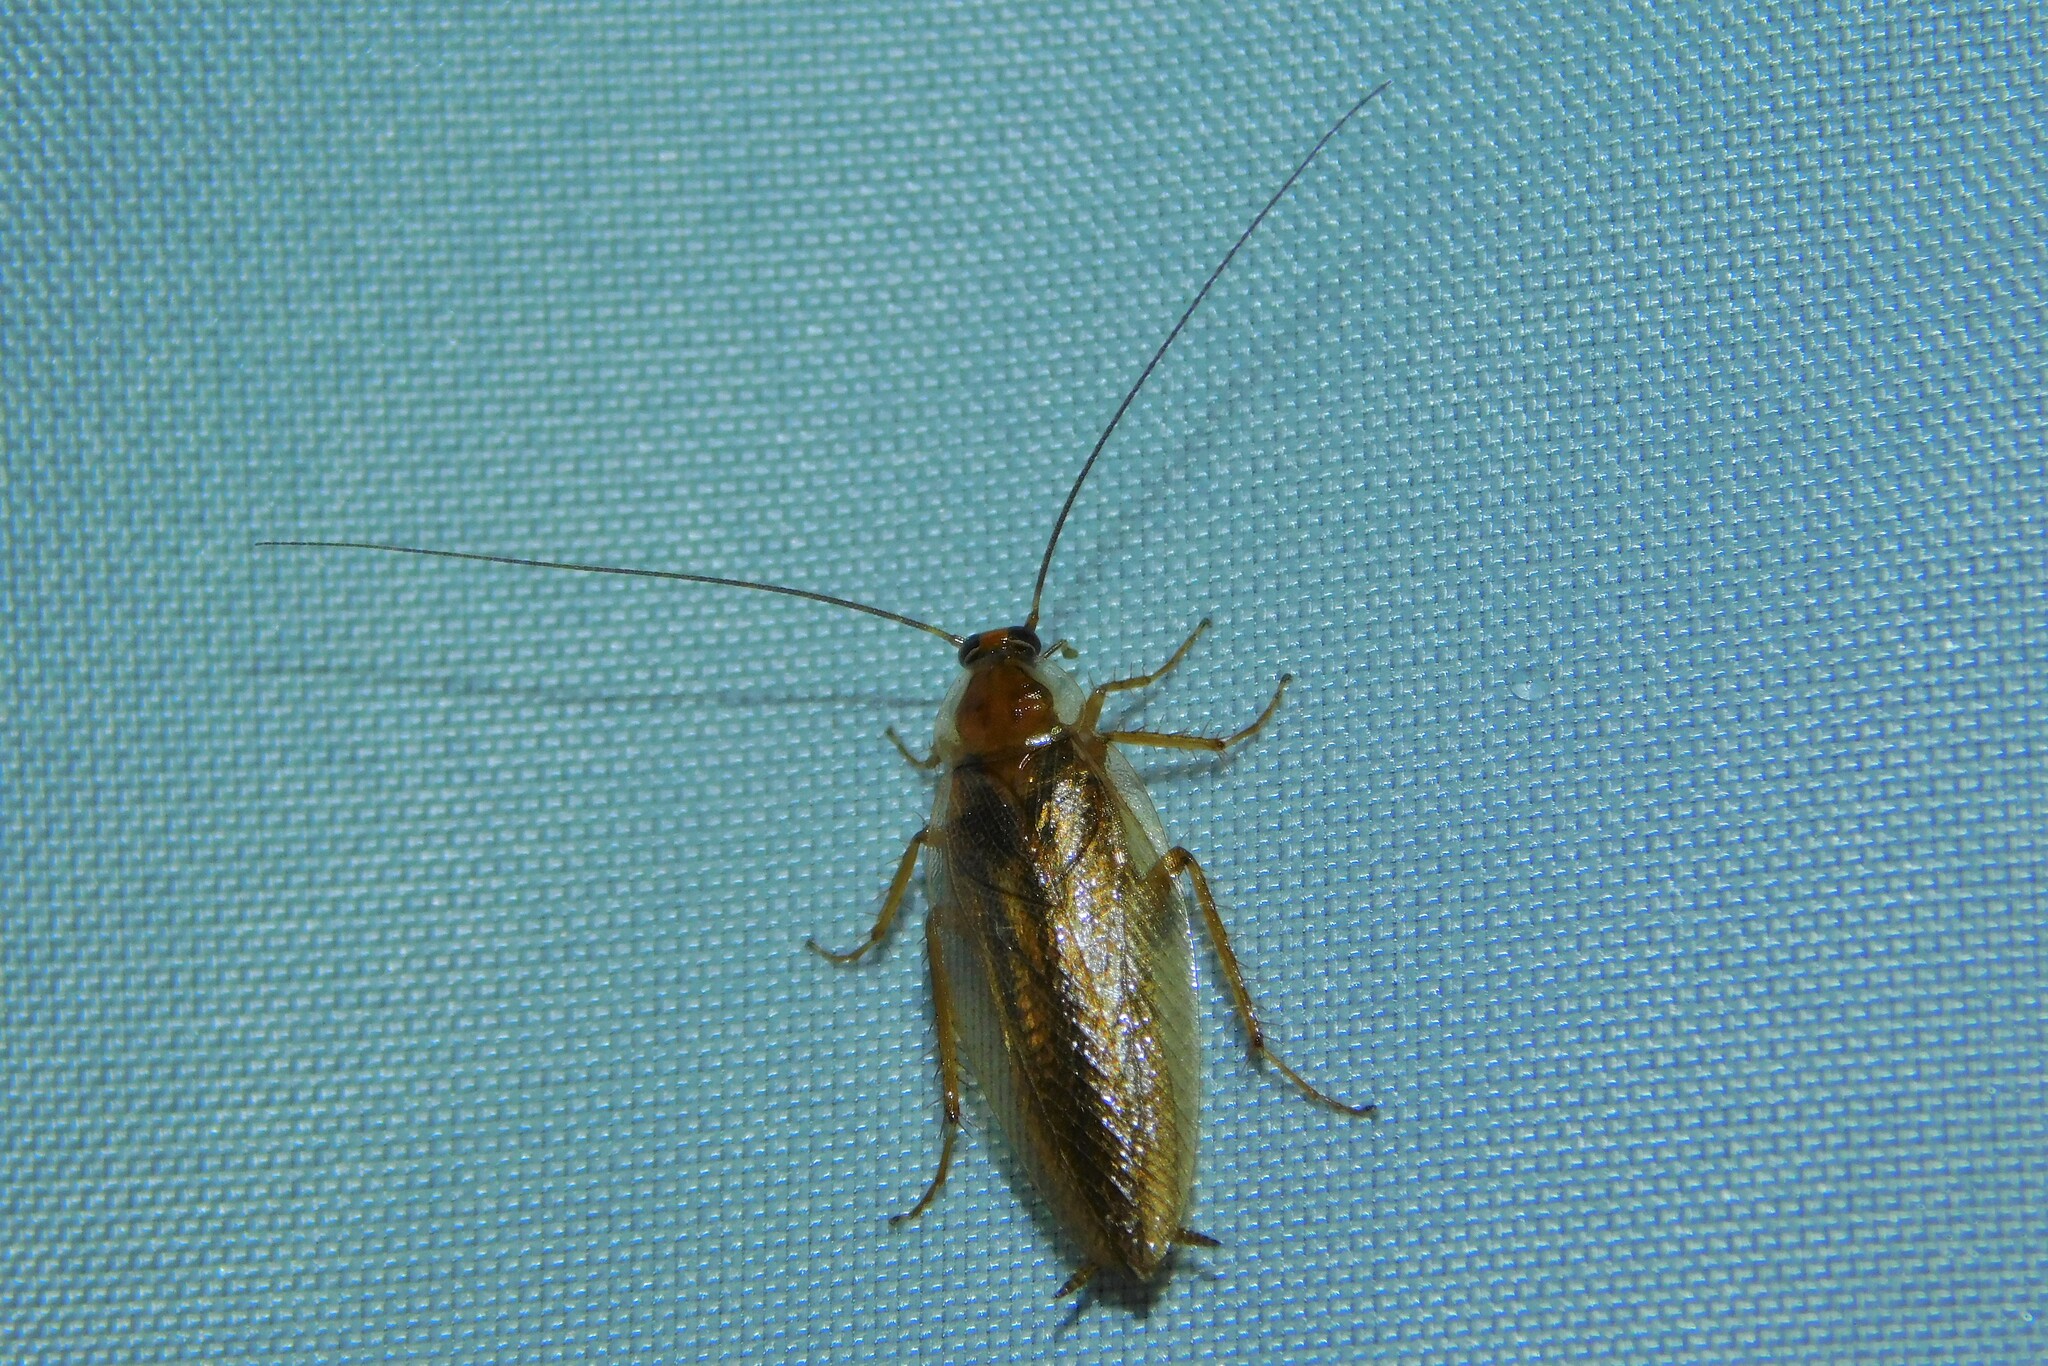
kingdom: Animalia
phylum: Arthropoda
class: Insecta
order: Blattodea
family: Ectobiidae
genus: Ectobius
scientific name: Ectobius vittiventris
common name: Garden cockroach
